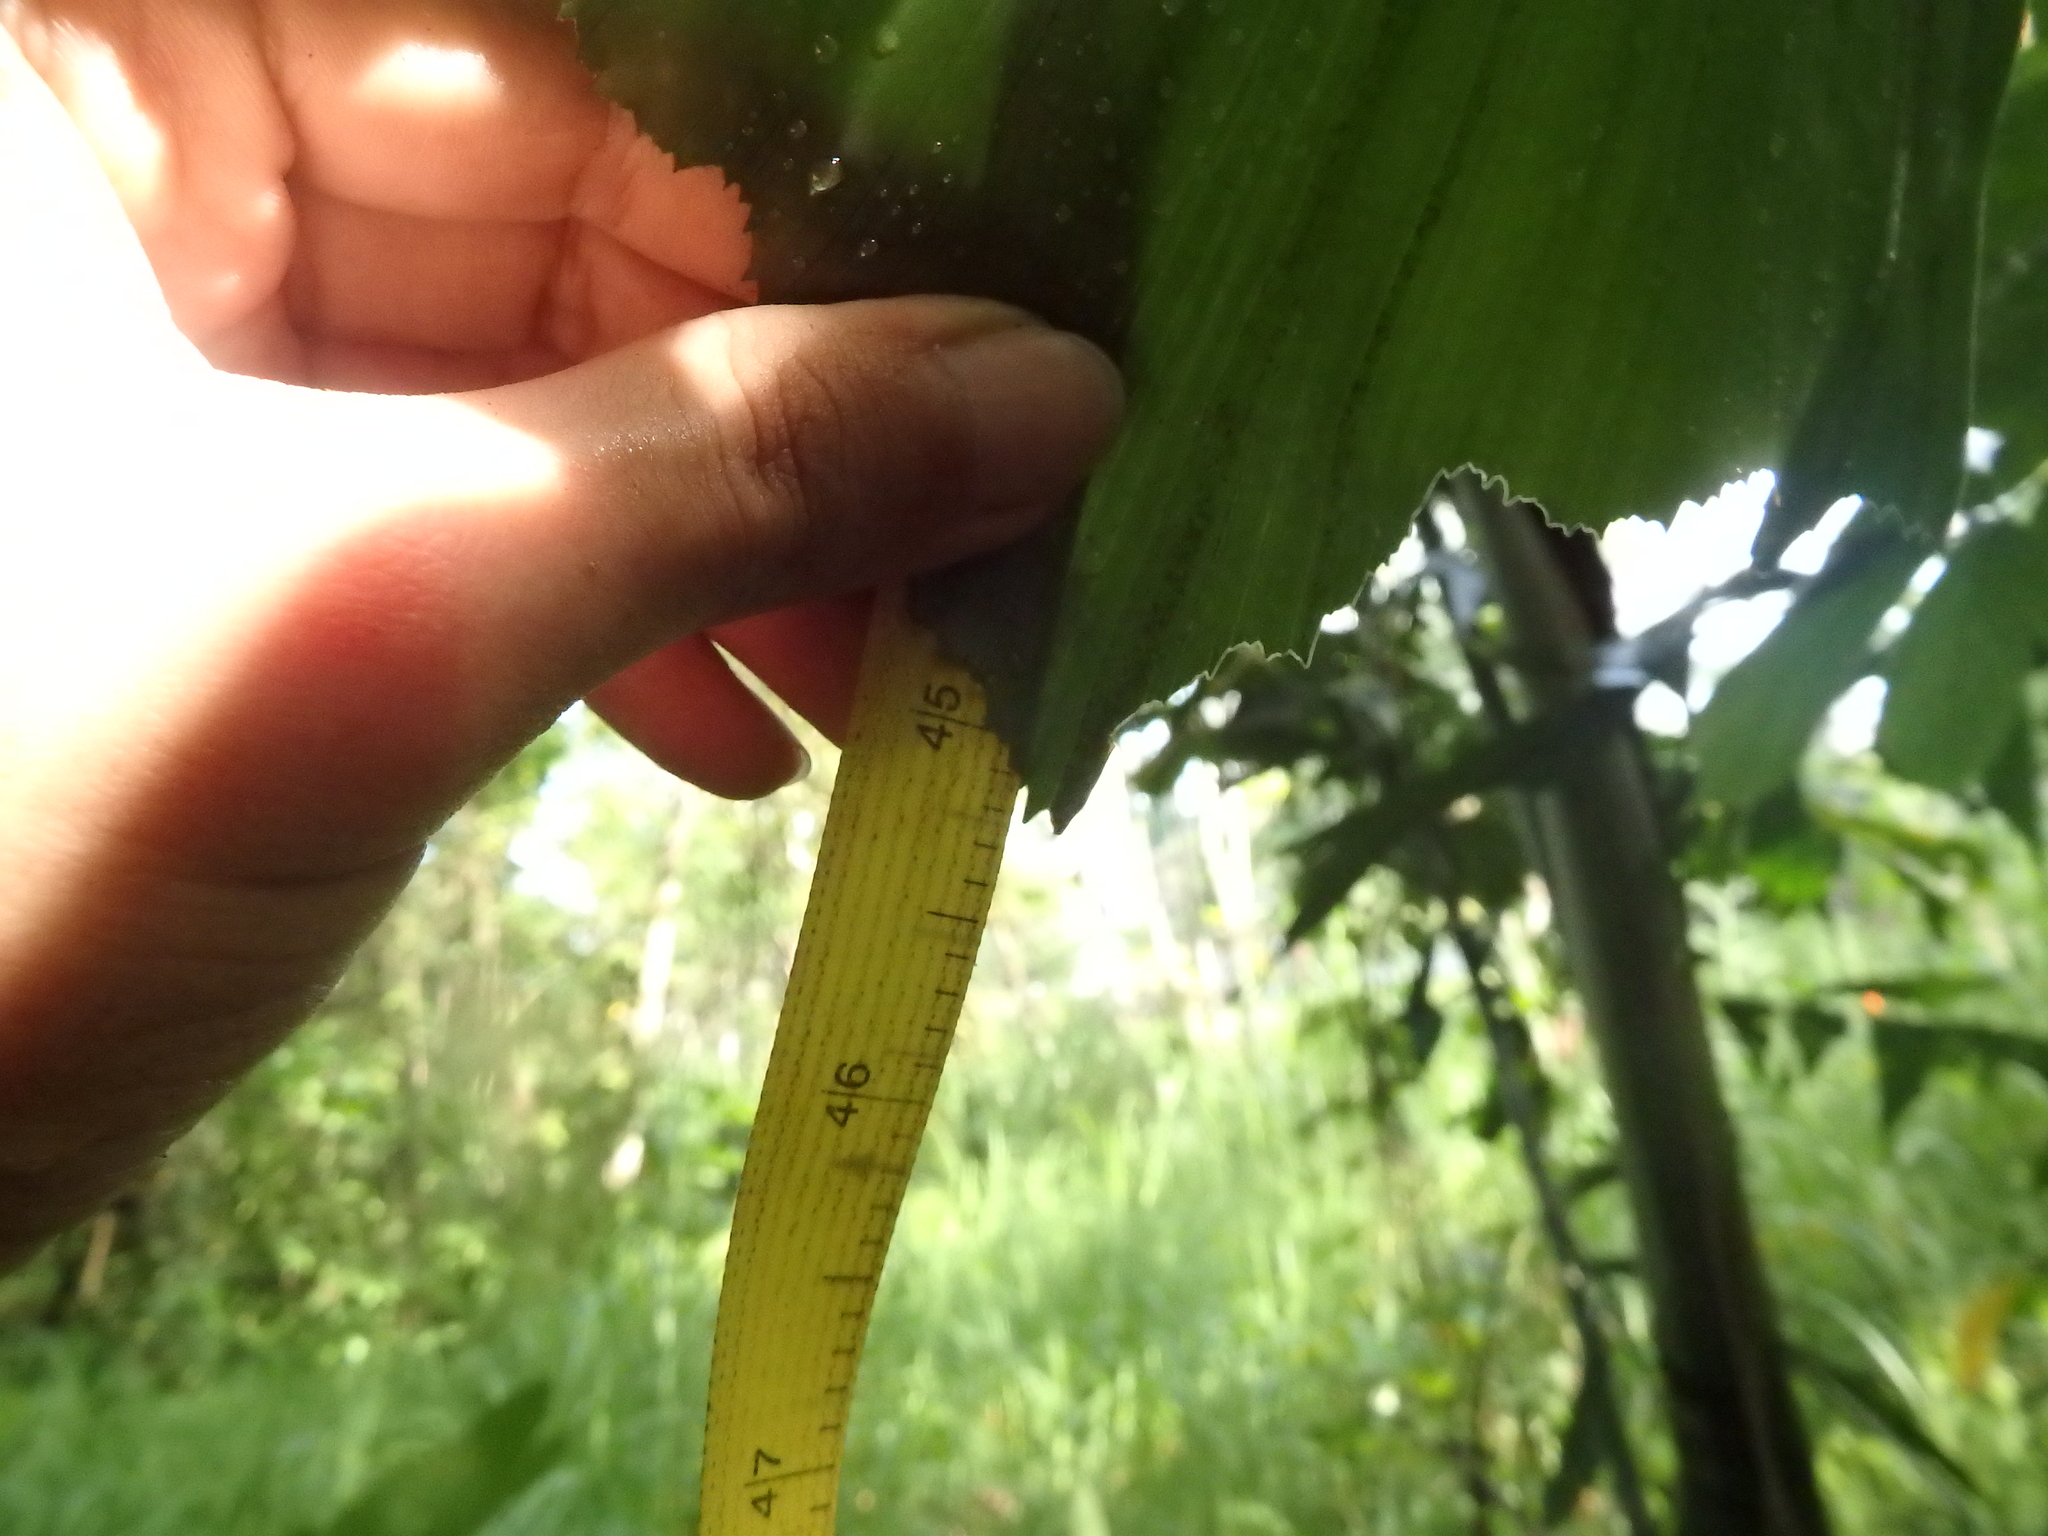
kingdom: Plantae
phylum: Tracheophyta
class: Liliopsida
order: Arecales
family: Arecaceae
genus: Caryota
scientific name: Caryota mitis
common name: Burmese fishtail palm
